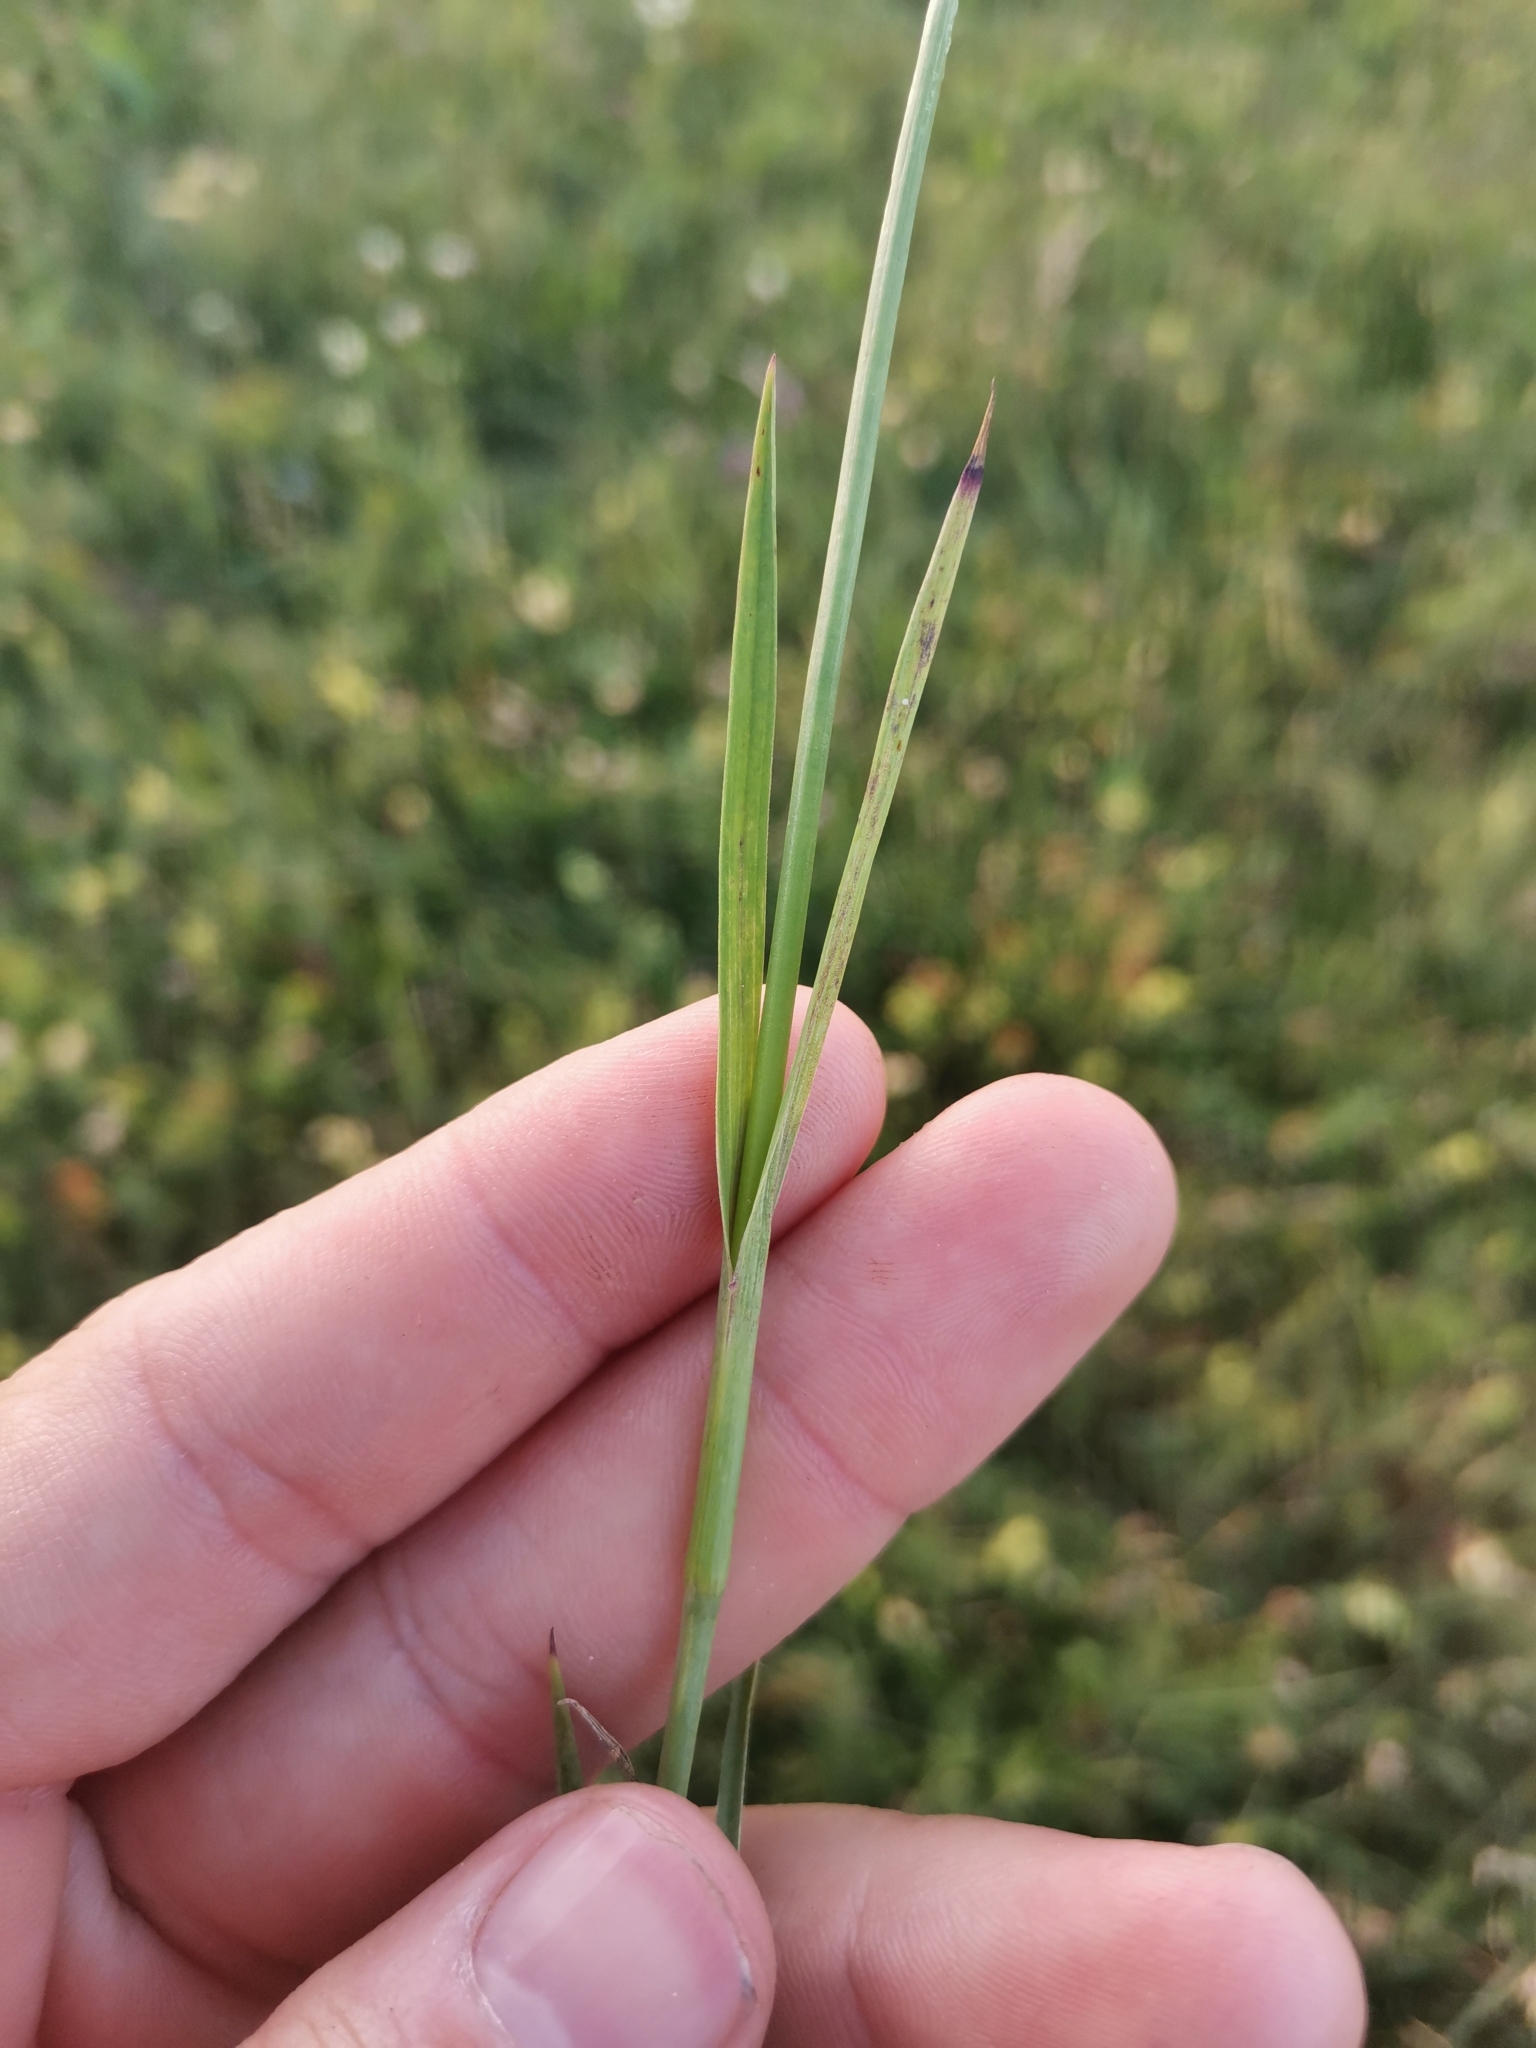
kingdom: Plantae
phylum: Tracheophyta
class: Magnoliopsida
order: Caryophyllales
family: Caryophyllaceae
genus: Dianthus
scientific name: Dianthus giganteus
